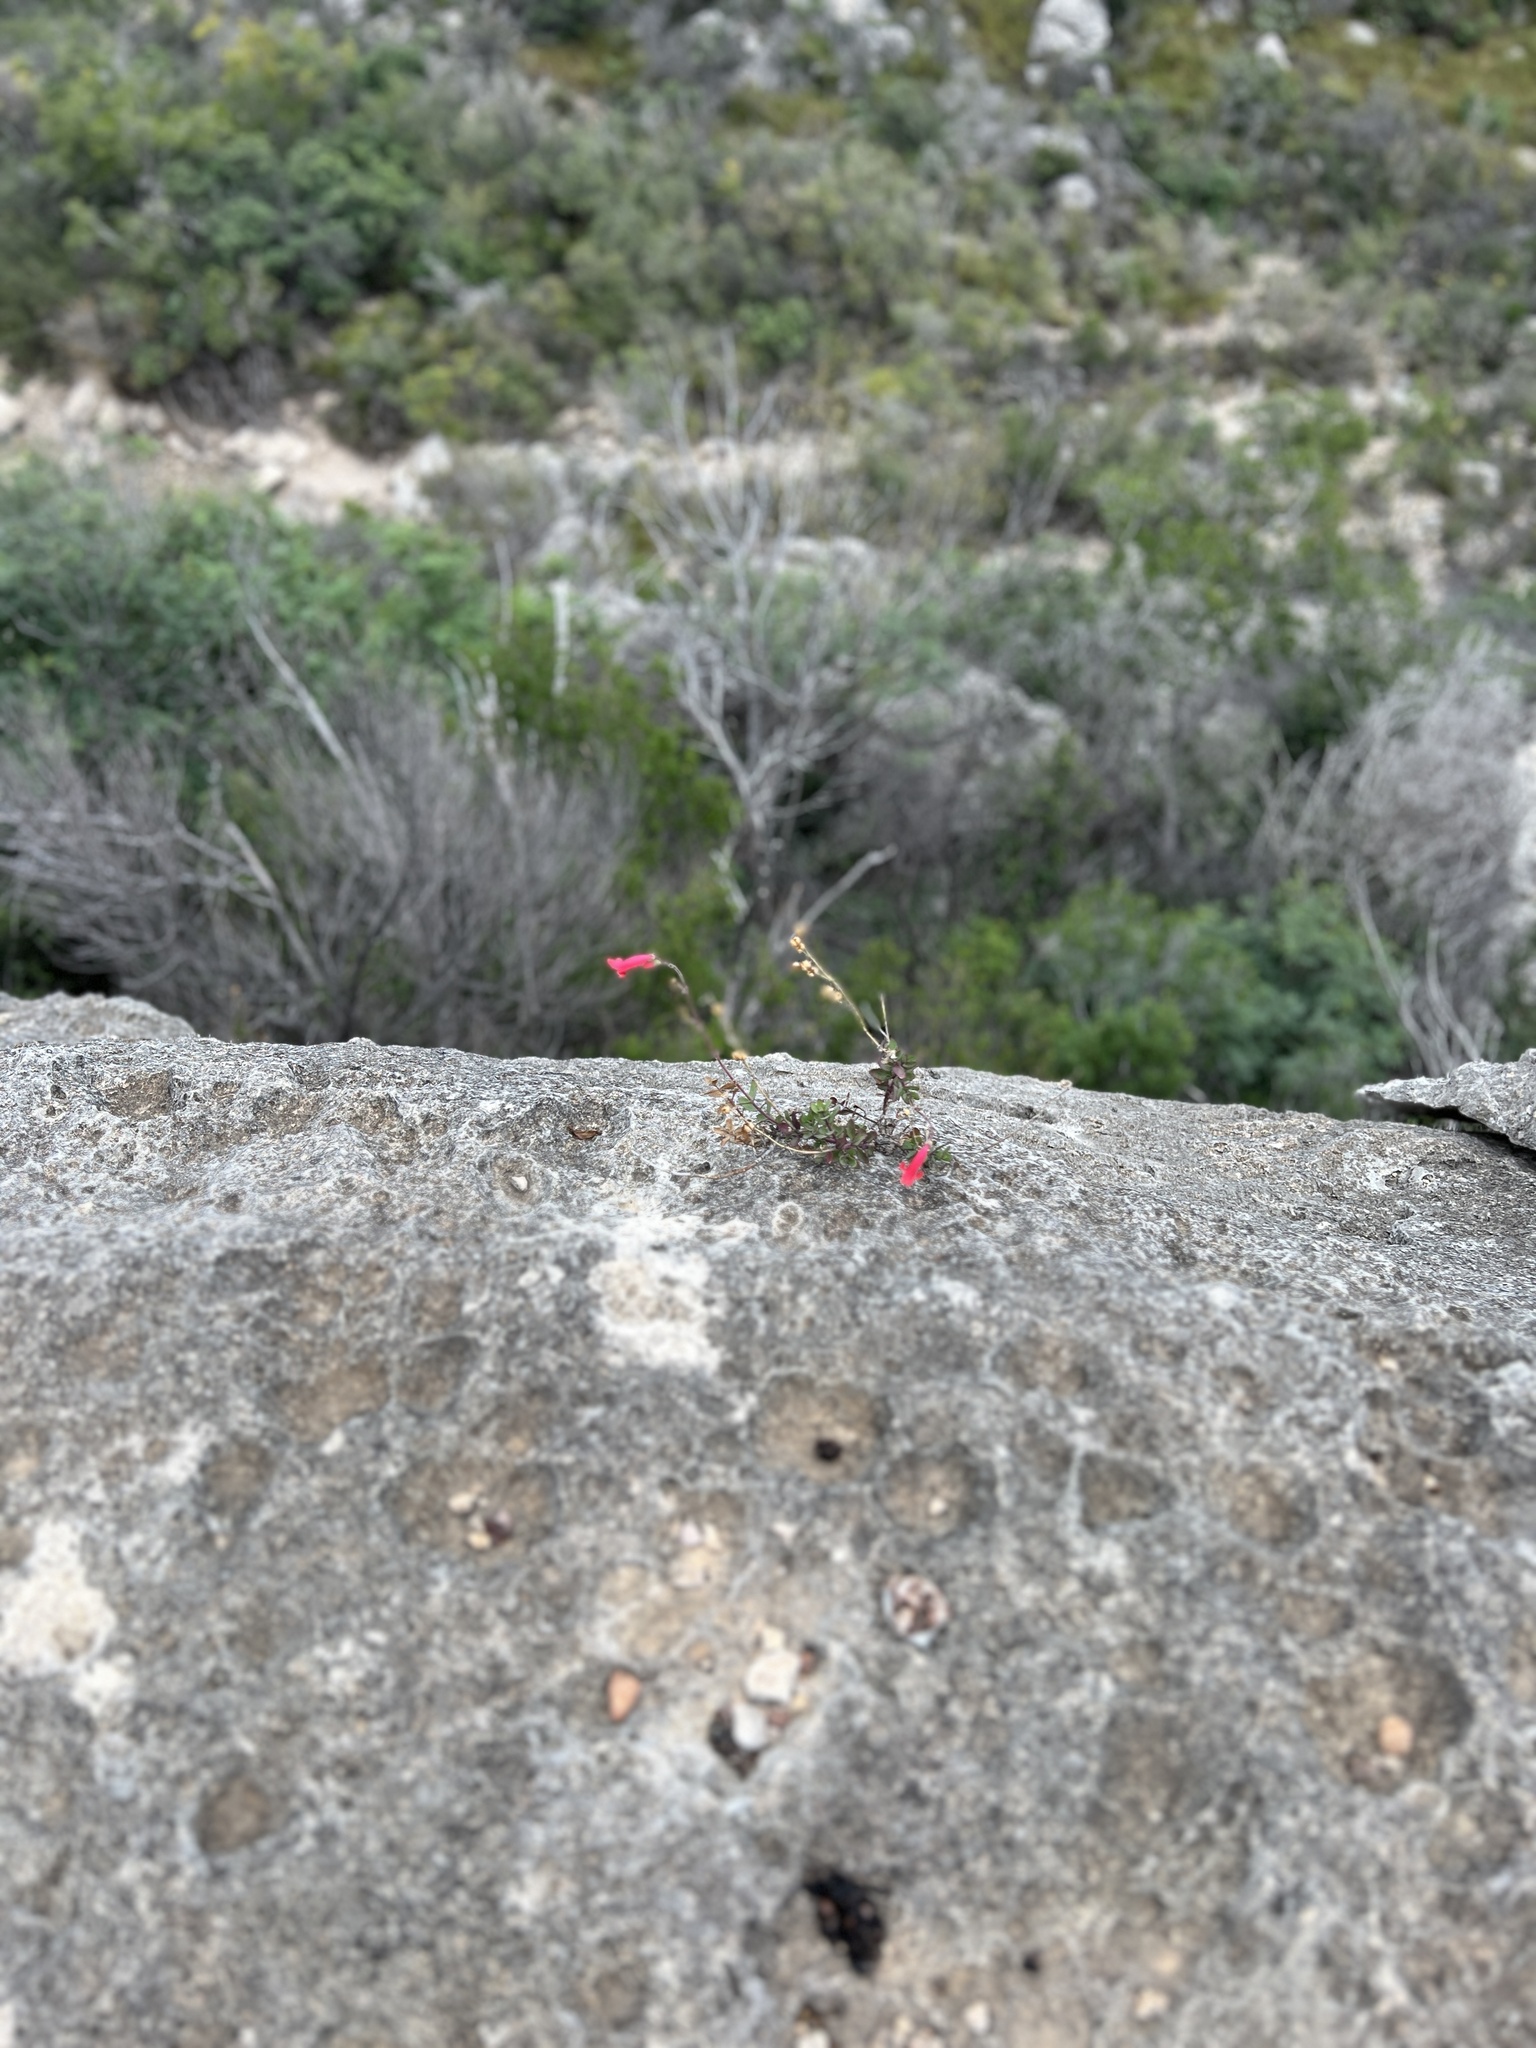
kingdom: Plantae
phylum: Tracheophyta
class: Magnoliopsida
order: Lamiales
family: Plantaginaceae
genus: Penstemon
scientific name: Penstemon baccharifolius
